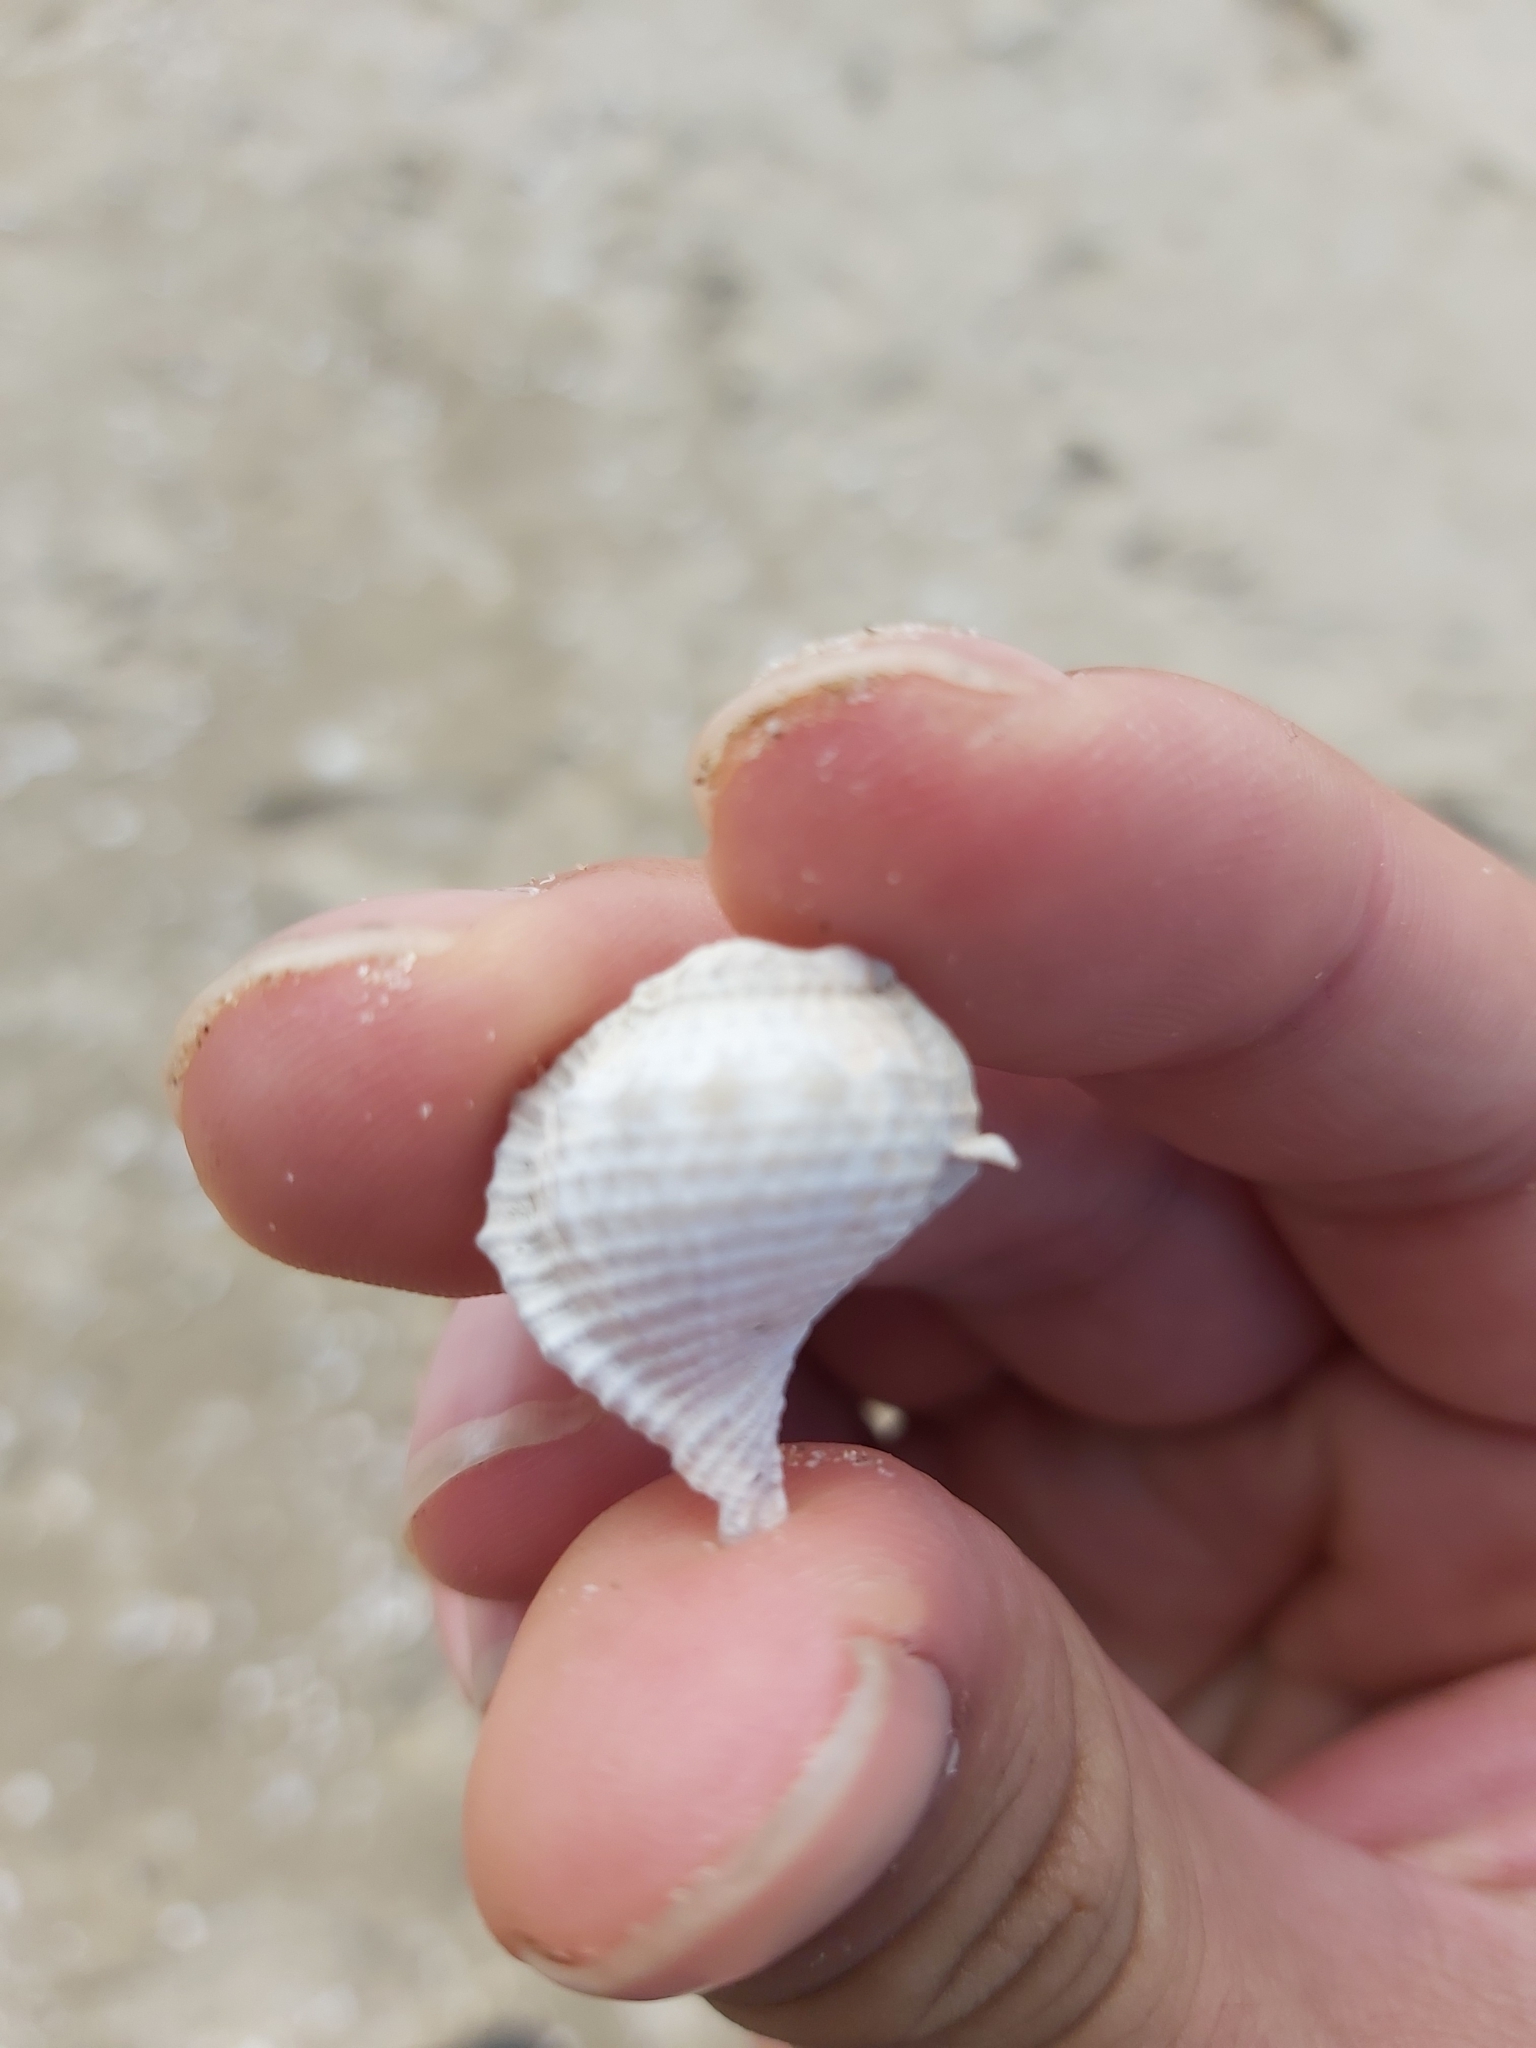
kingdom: Animalia
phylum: Mollusca
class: Gastropoda
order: Littorinimorpha
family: Bursidae
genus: Bufonaria
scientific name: Bufonaria rana
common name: Common frogsnail
